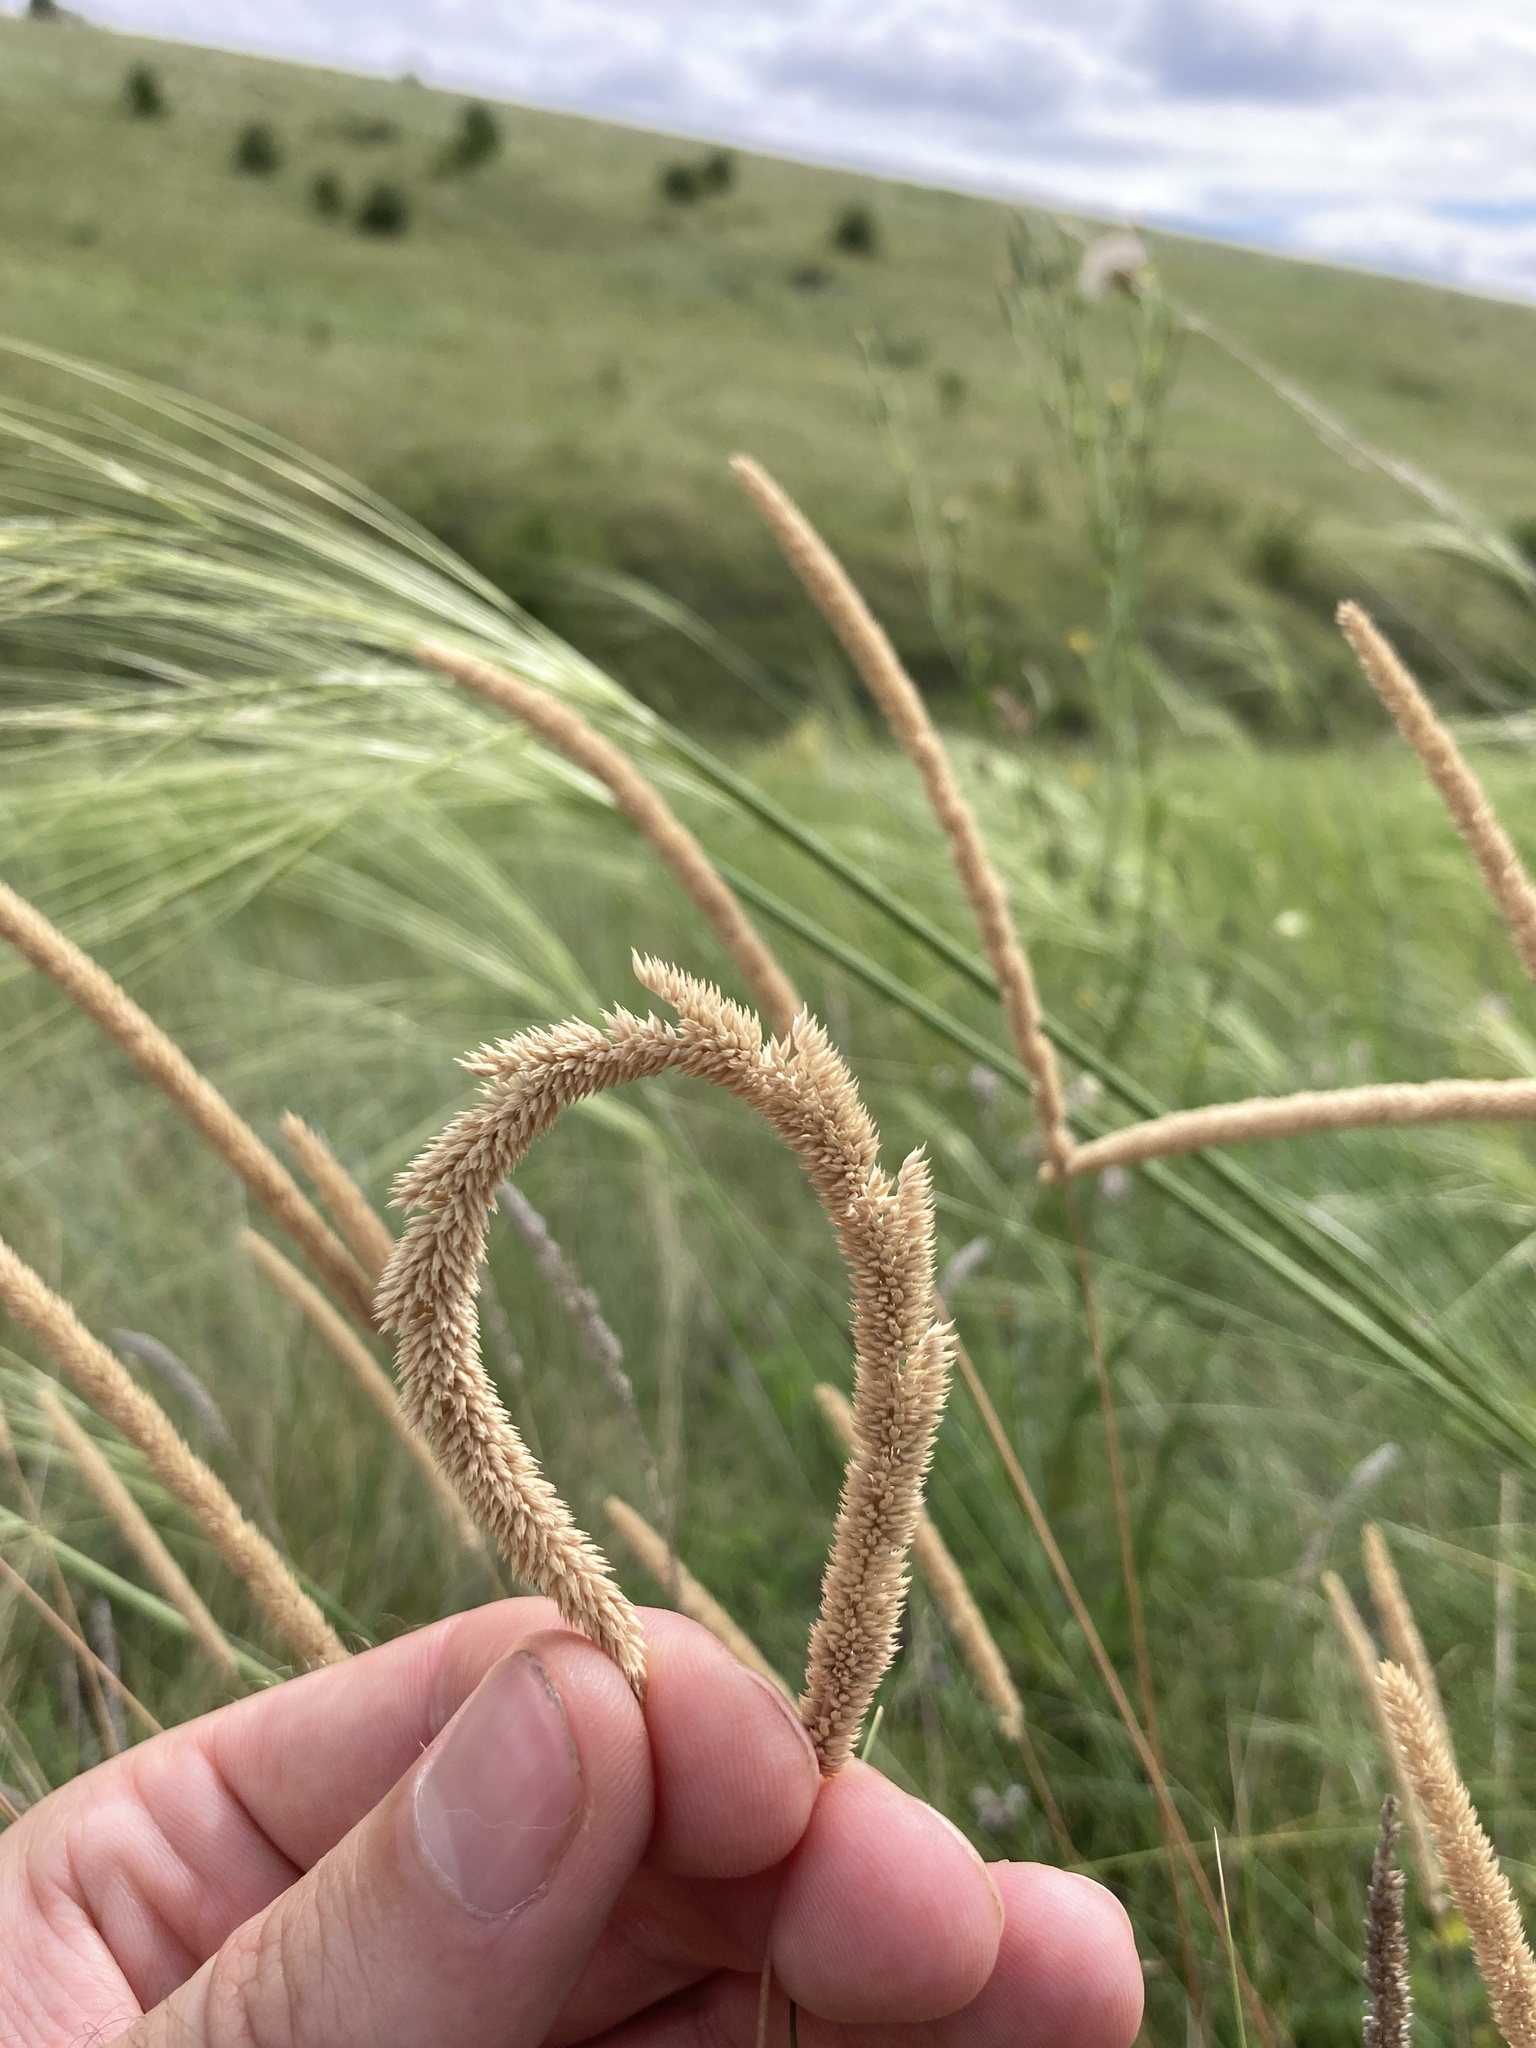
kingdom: Plantae
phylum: Tracheophyta
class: Liliopsida
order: Poales
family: Poaceae
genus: Phleum
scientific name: Phleum phleoides
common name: Purple-stem cat's-tail
